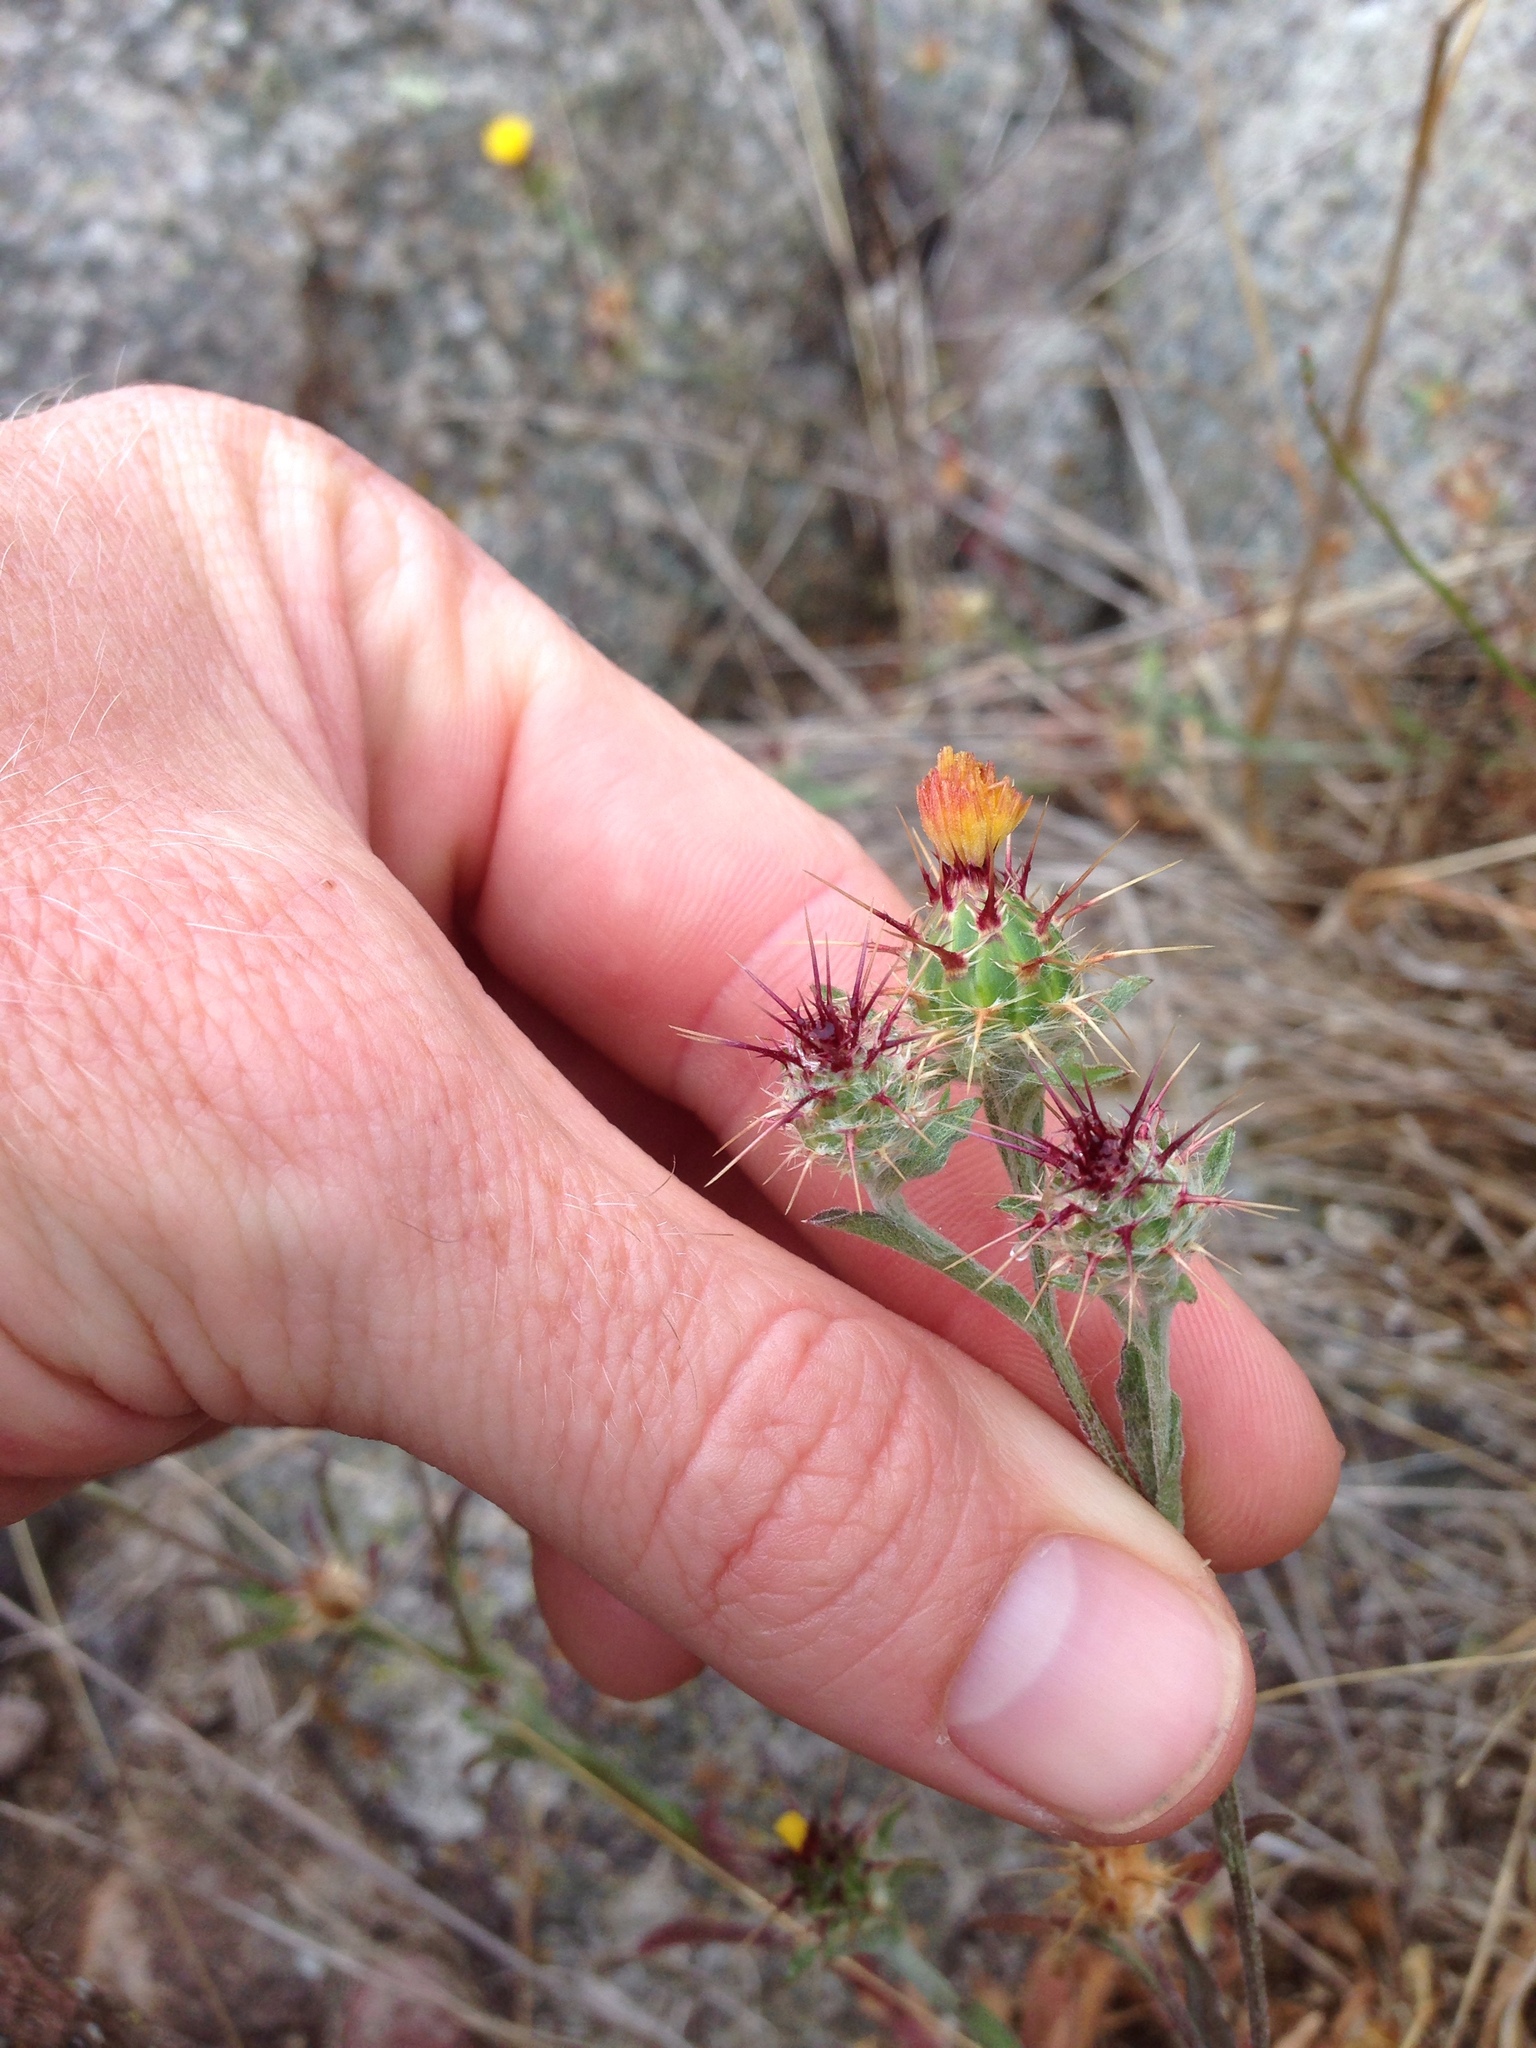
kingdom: Plantae
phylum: Tracheophyta
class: Magnoliopsida
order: Asterales
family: Asteraceae
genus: Centaurea
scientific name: Centaurea melitensis
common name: Maltese star-thistle
